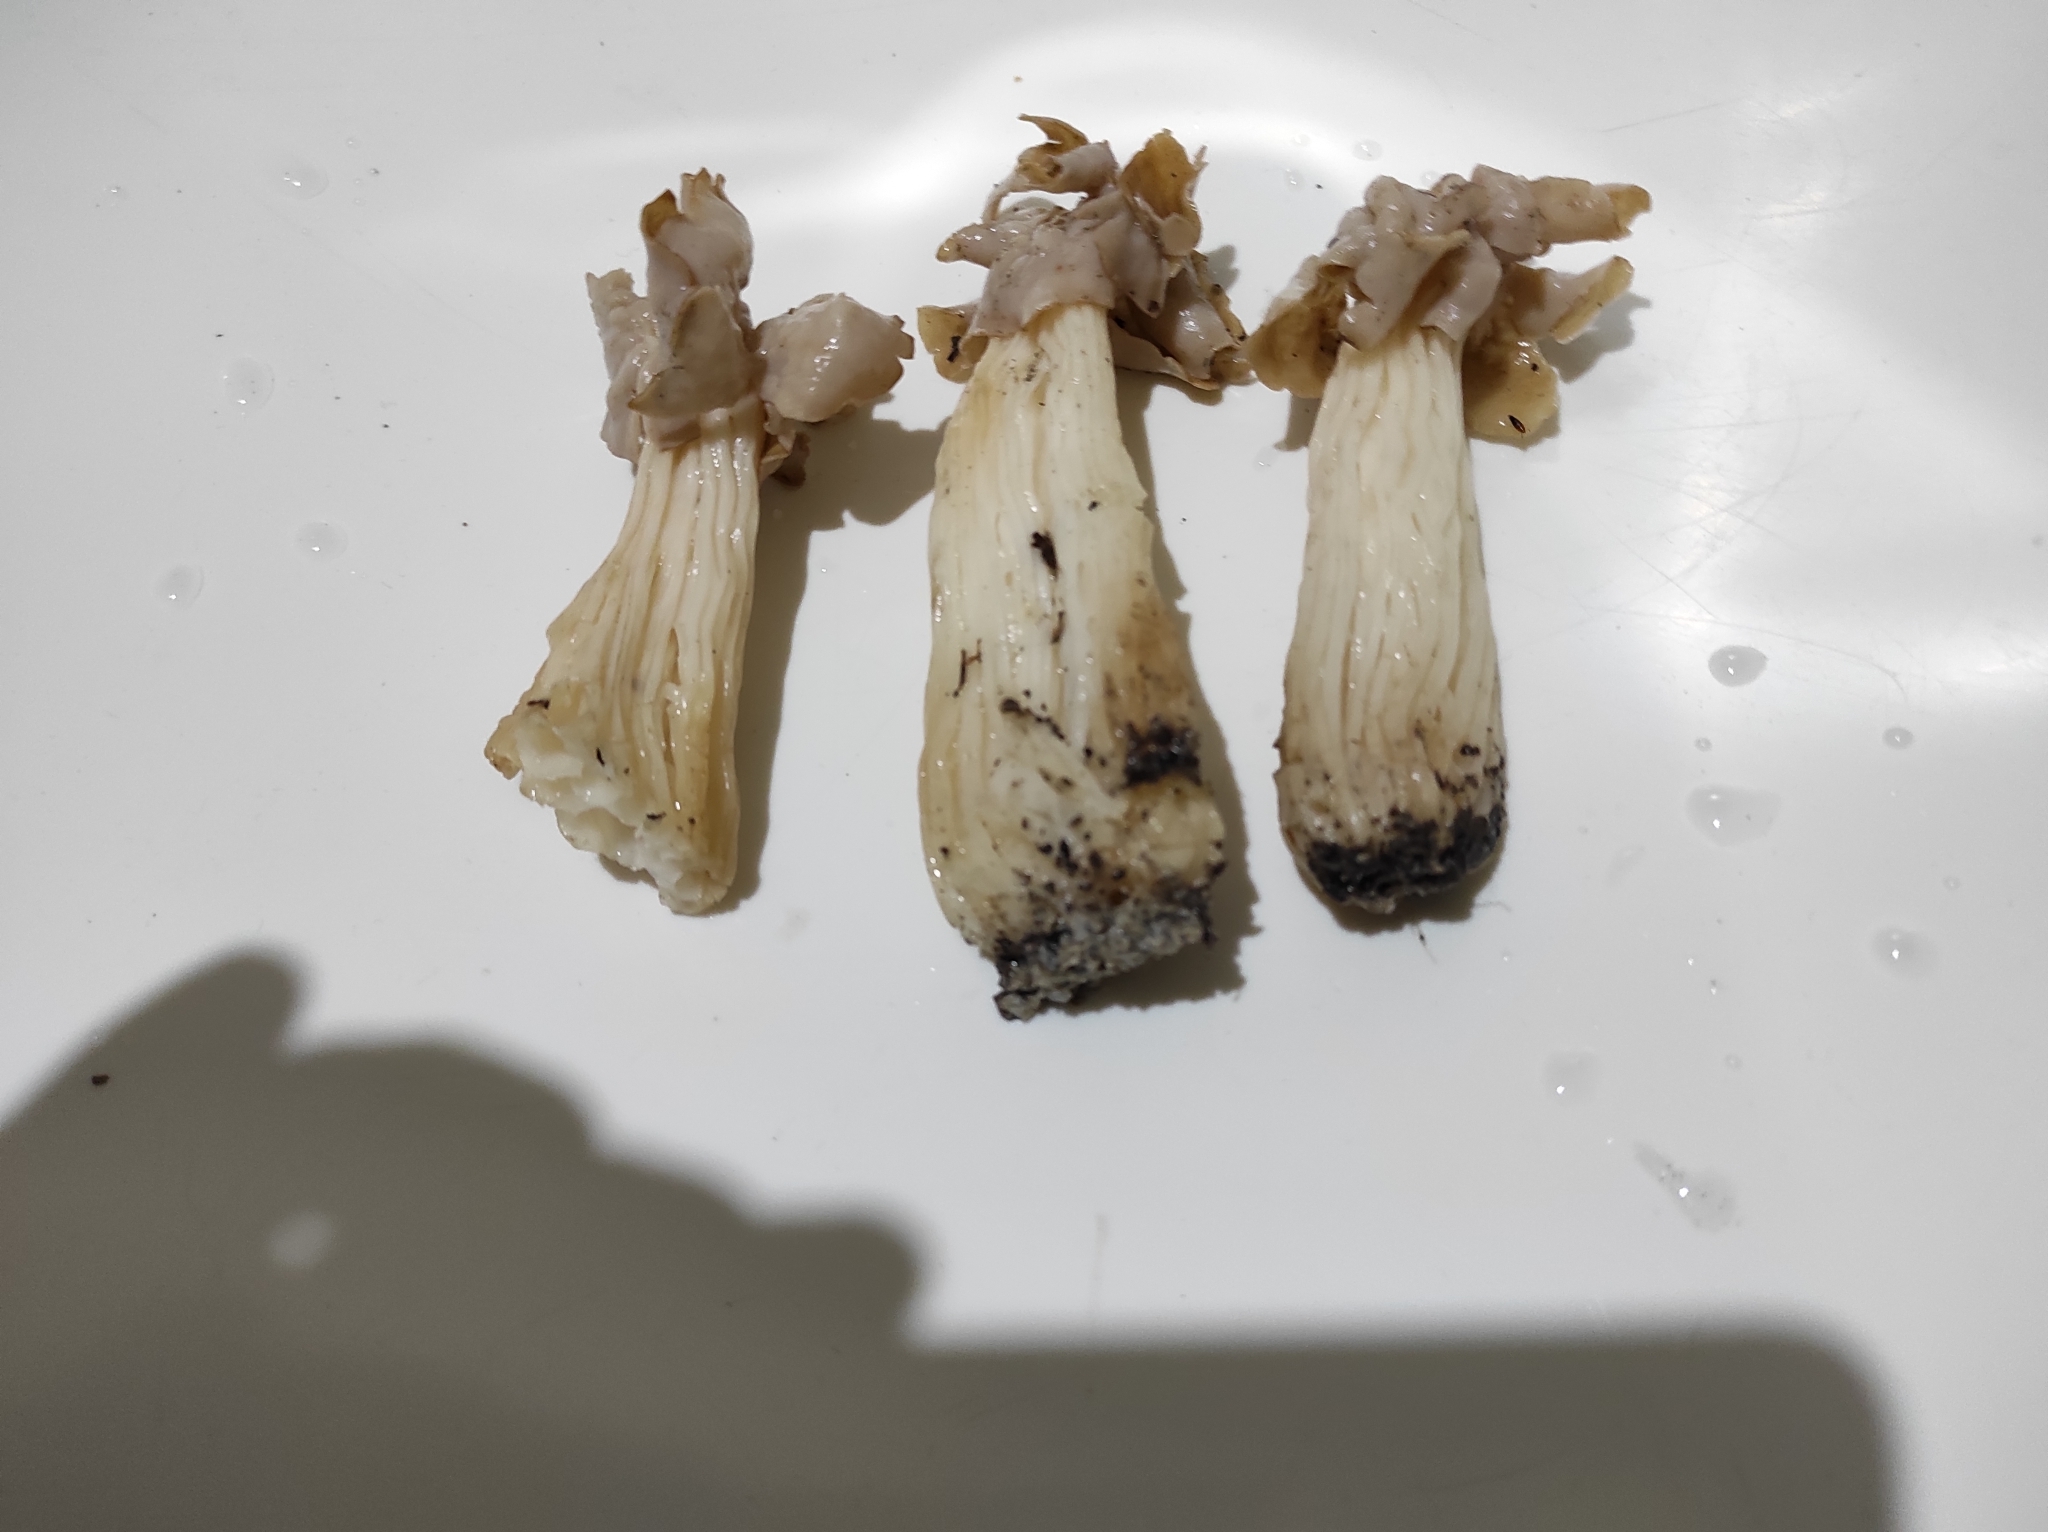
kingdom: Fungi
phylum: Ascomycota
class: Pezizomycetes
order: Pezizales
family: Helvellaceae
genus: Helvella
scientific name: Helvella crispa
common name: White saddle
